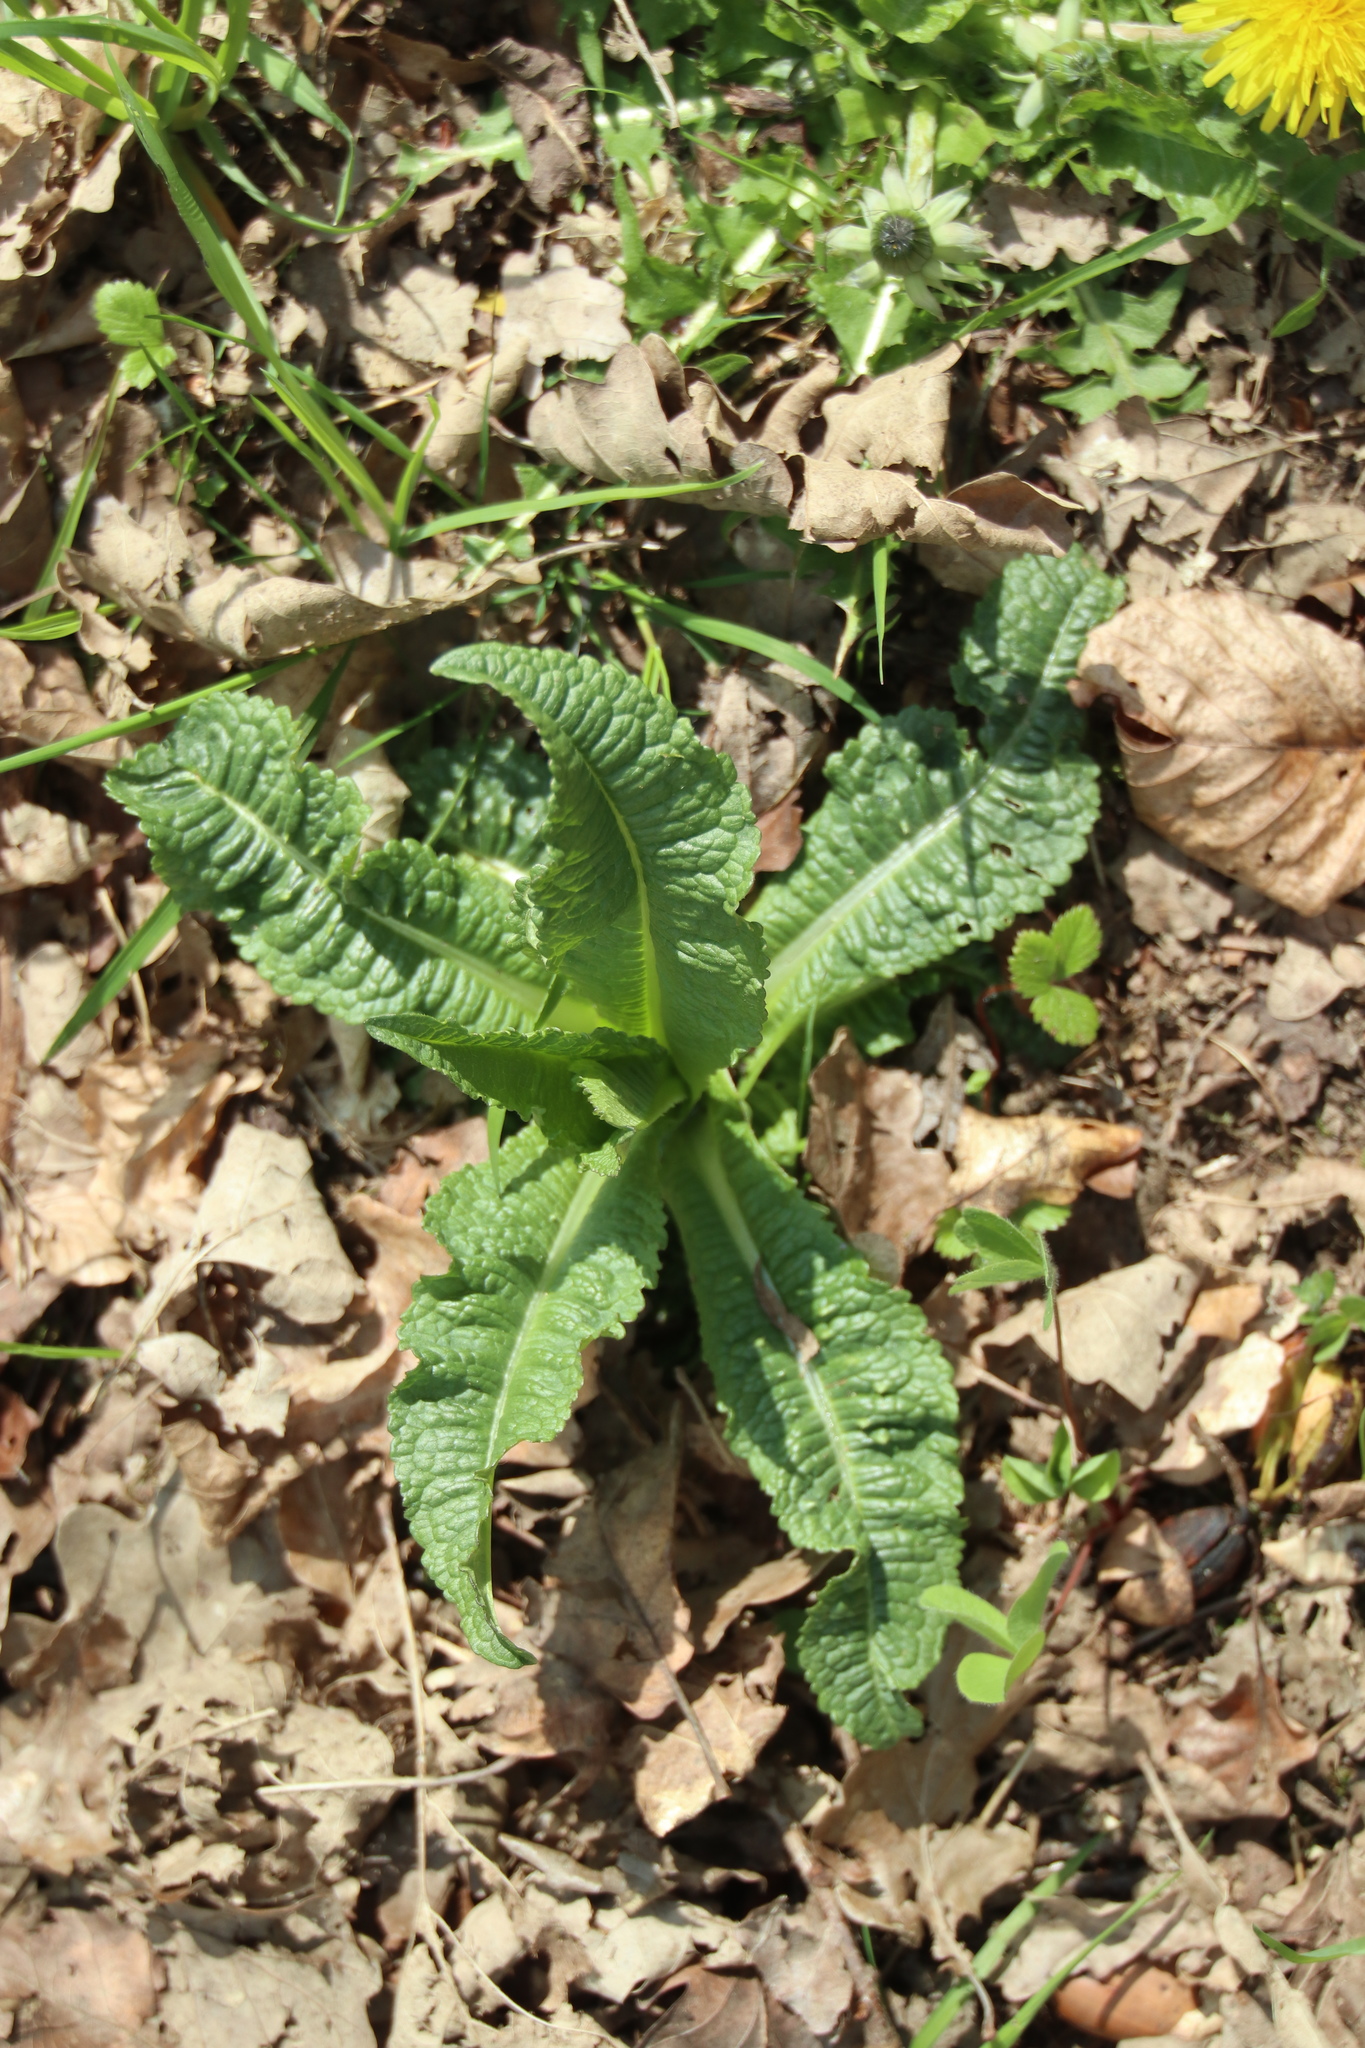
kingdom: Plantae
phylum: Tracheophyta
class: Magnoliopsida
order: Dipsacales
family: Caprifoliaceae
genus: Dipsacus
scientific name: Dipsacus fullonum
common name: Teasel
